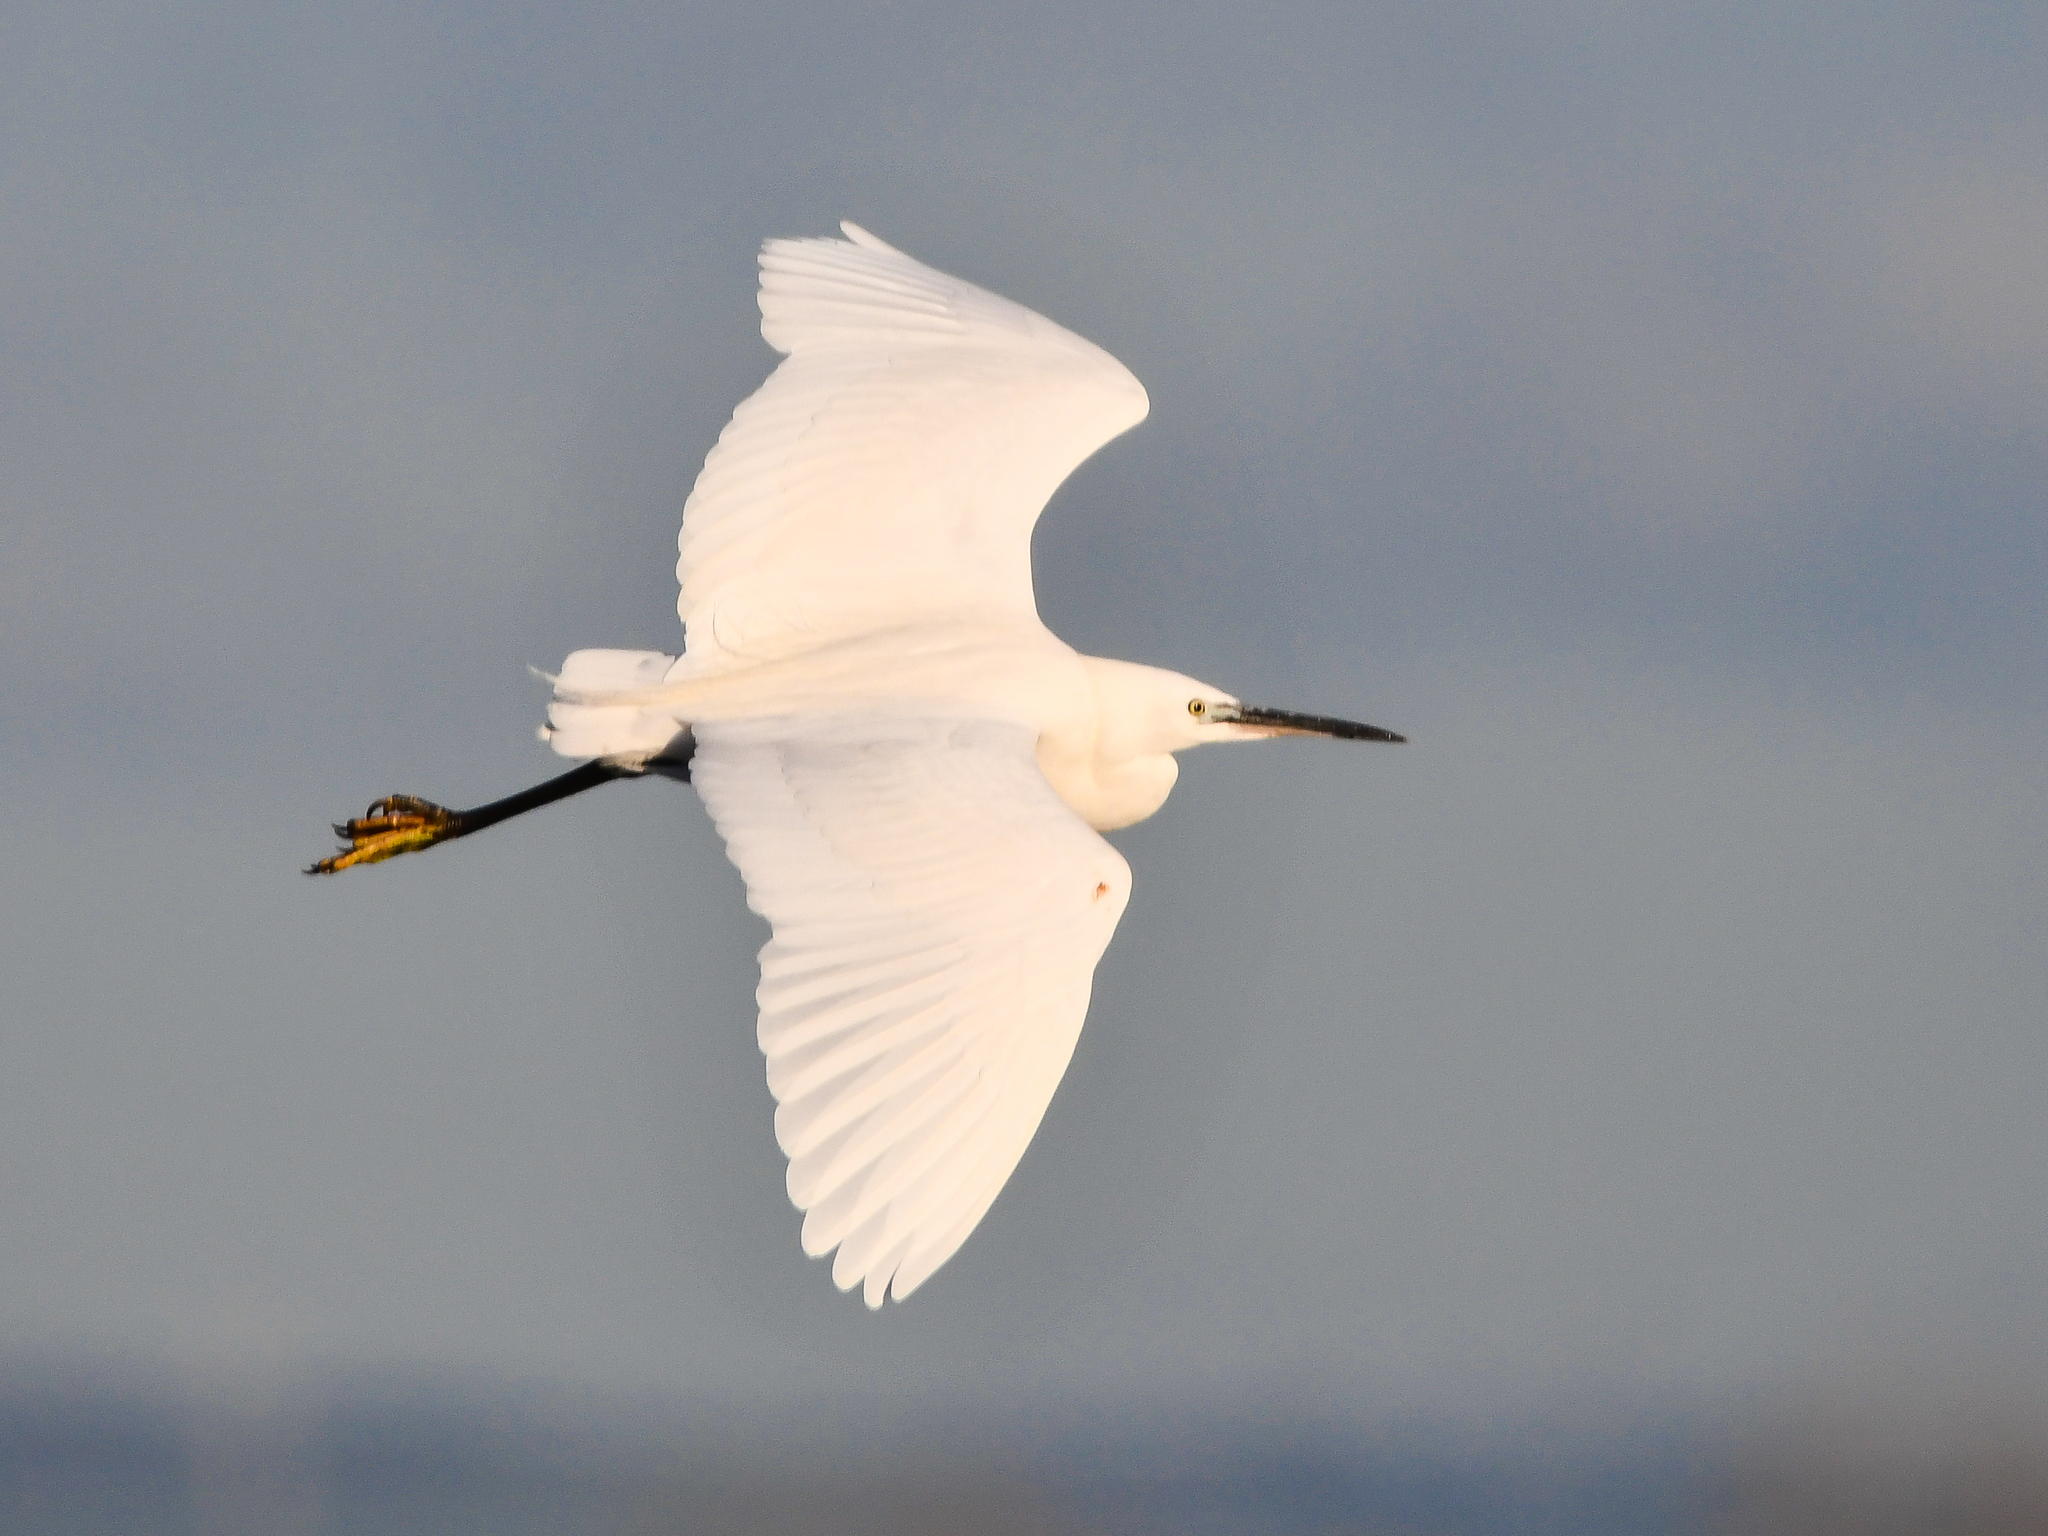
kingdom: Animalia
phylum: Chordata
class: Aves
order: Pelecaniformes
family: Ardeidae
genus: Egretta
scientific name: Egretta garzetta
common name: Little egret
